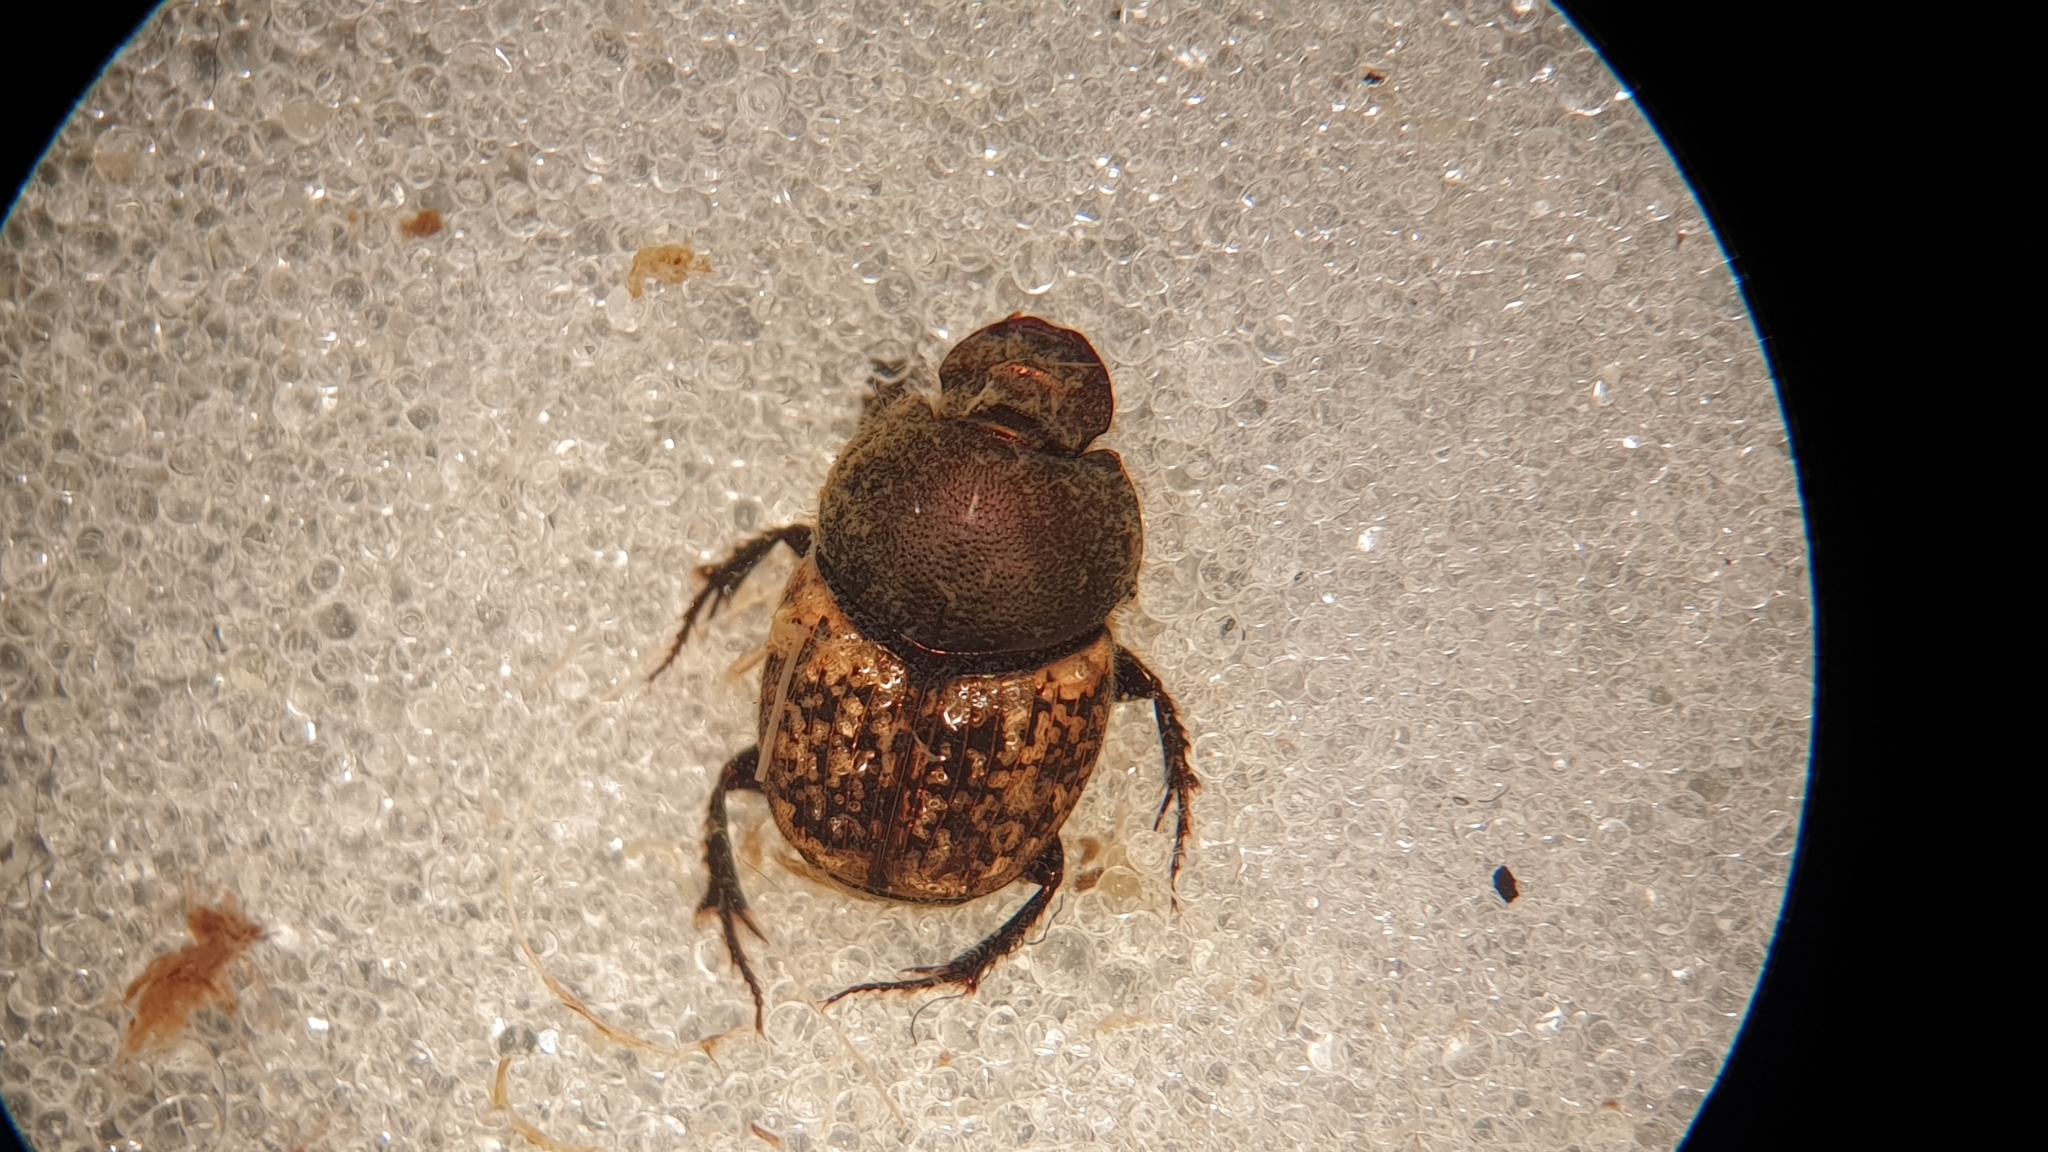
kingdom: Animalia
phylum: Arthropoda
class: Insecta
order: Coleoptera
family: Scarabaeidae
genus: Onthophagus
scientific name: Onthophagus similis
